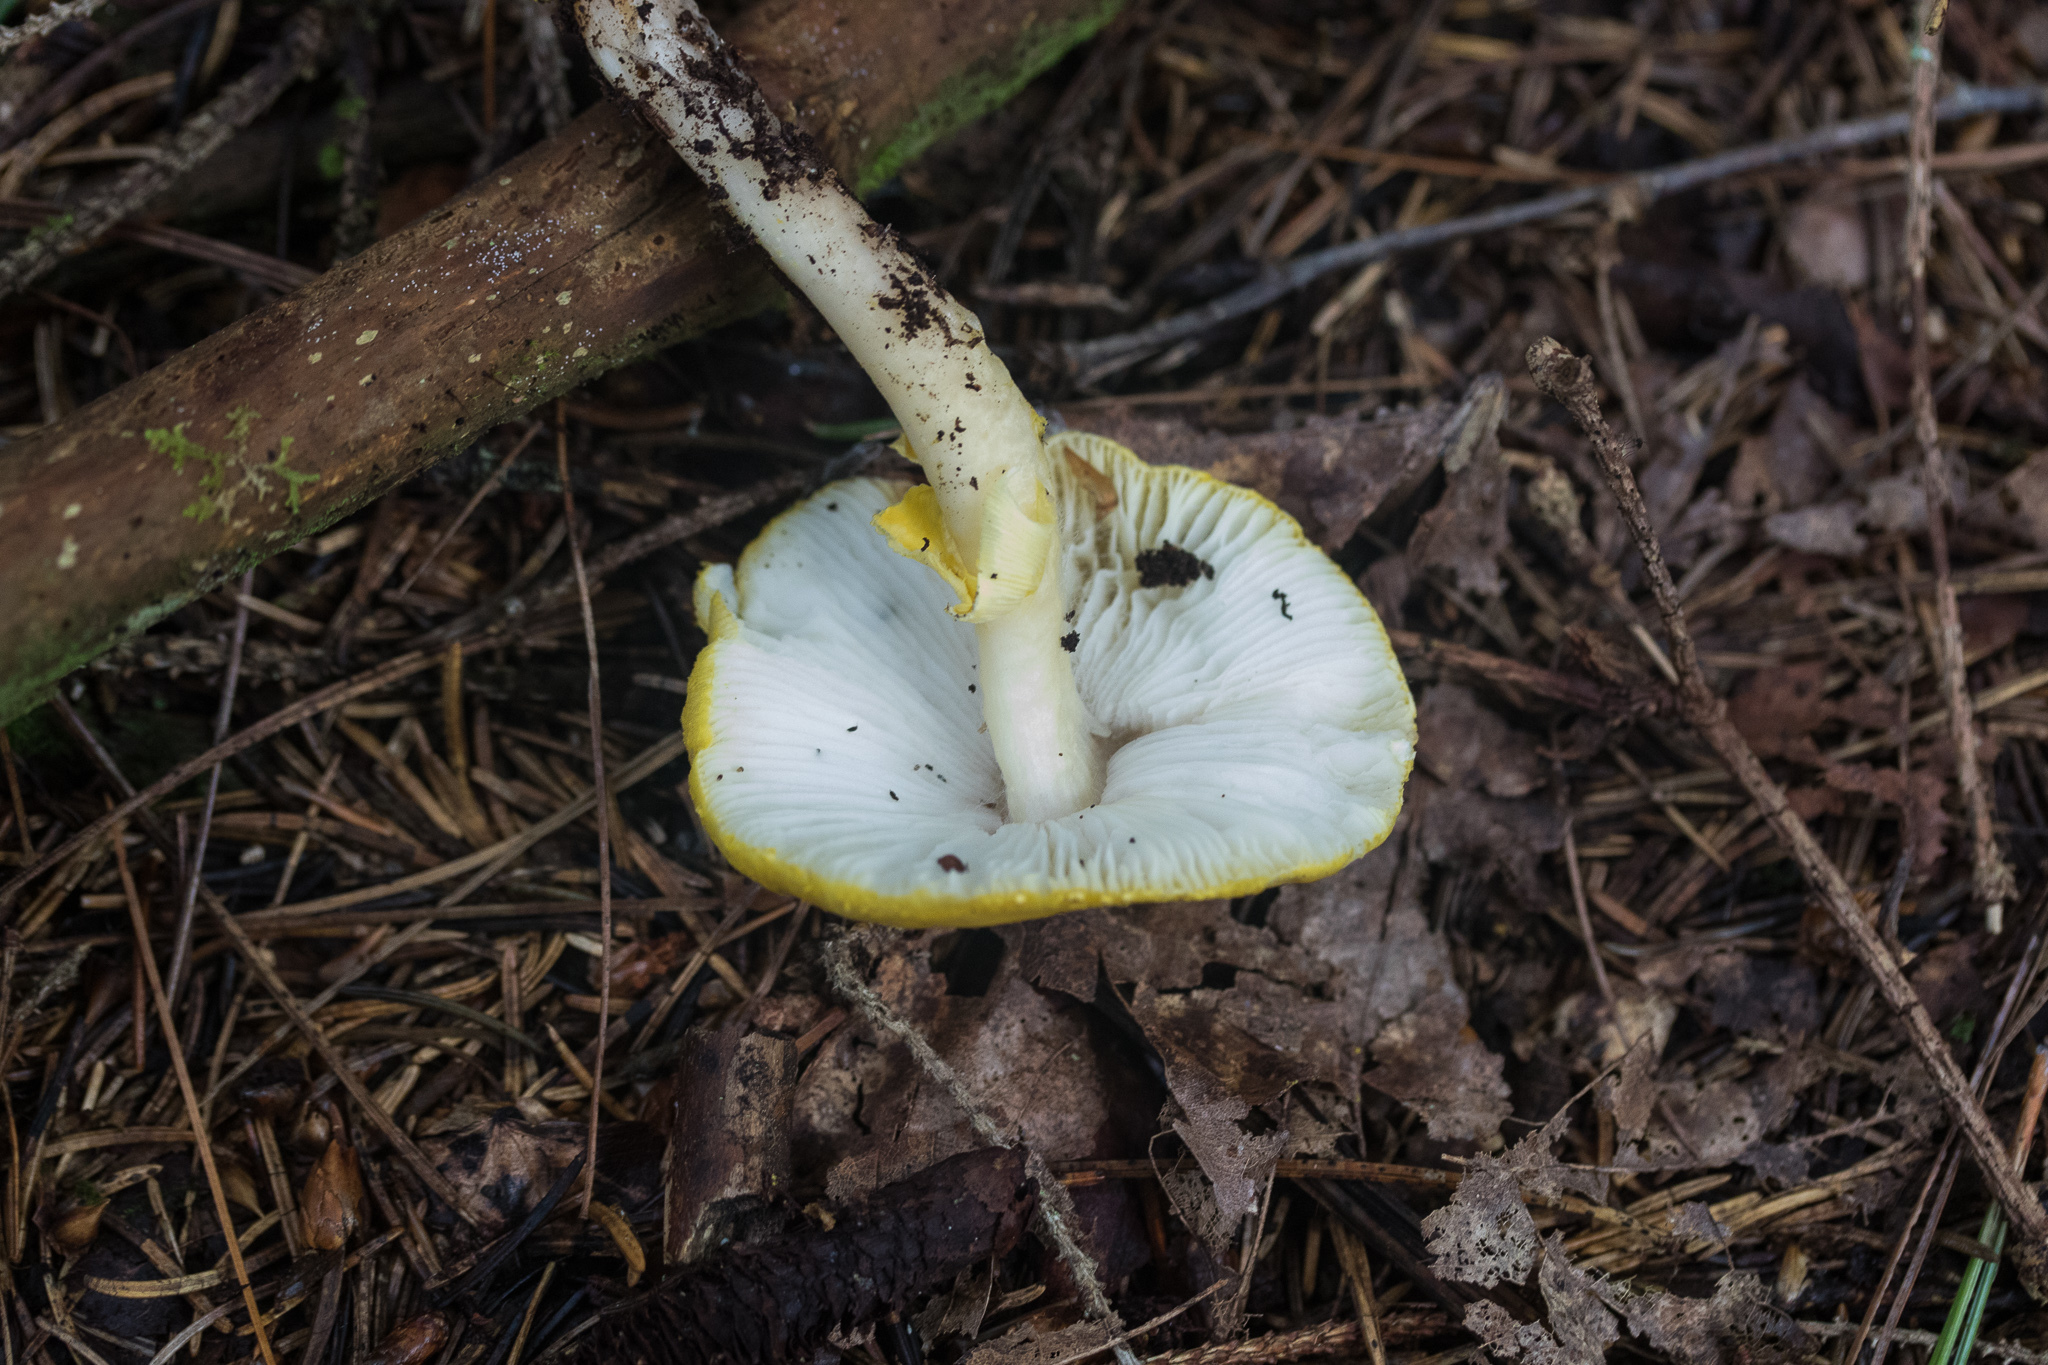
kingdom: Fungi
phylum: Basidiomycota
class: Agaricomycetes
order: Agaricales
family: Amanitaceae
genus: Amanita
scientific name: Amanita flavoconia
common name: Yellow patches
